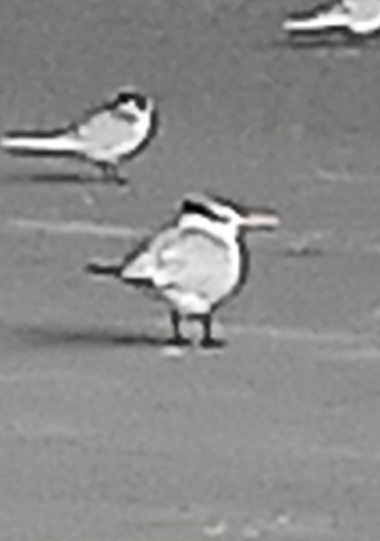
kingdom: Animalia
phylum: Chordata
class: Aves
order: Charadriiformes
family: Laridae
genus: Thalasseus
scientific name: Thalasseus maximus
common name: Royal tern
